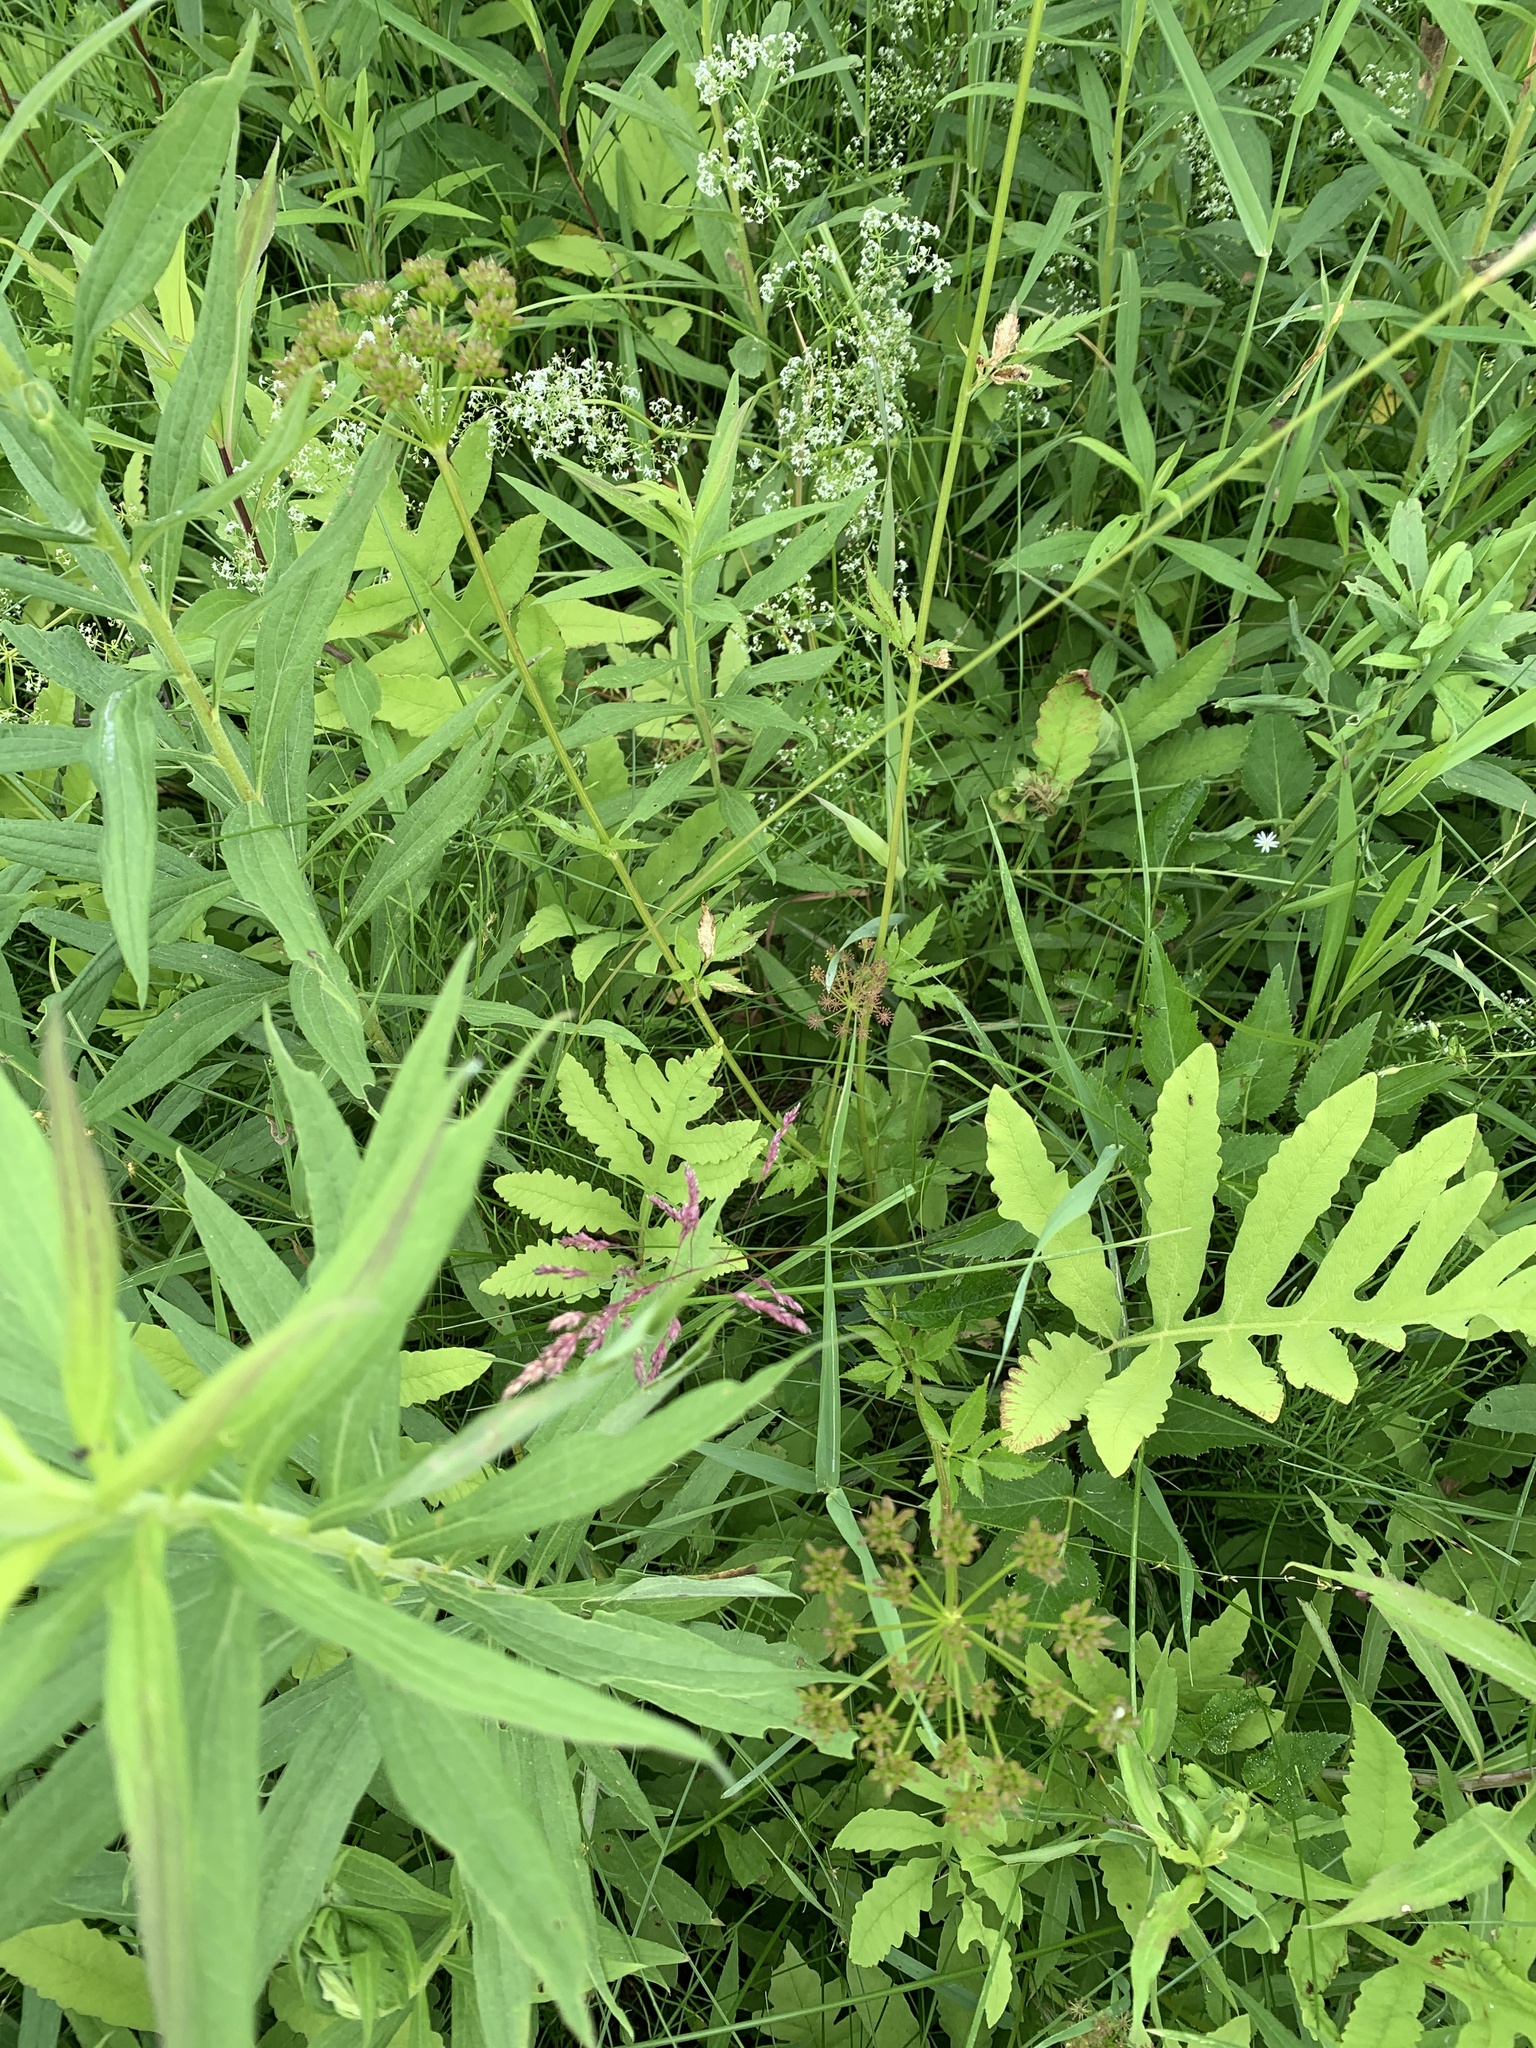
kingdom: Plantae
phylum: Tracheophyta
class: Magnoliopsida
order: Apiales
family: Apiaceae
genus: Zizia
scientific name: Zizia aurea
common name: Golden alexanders
